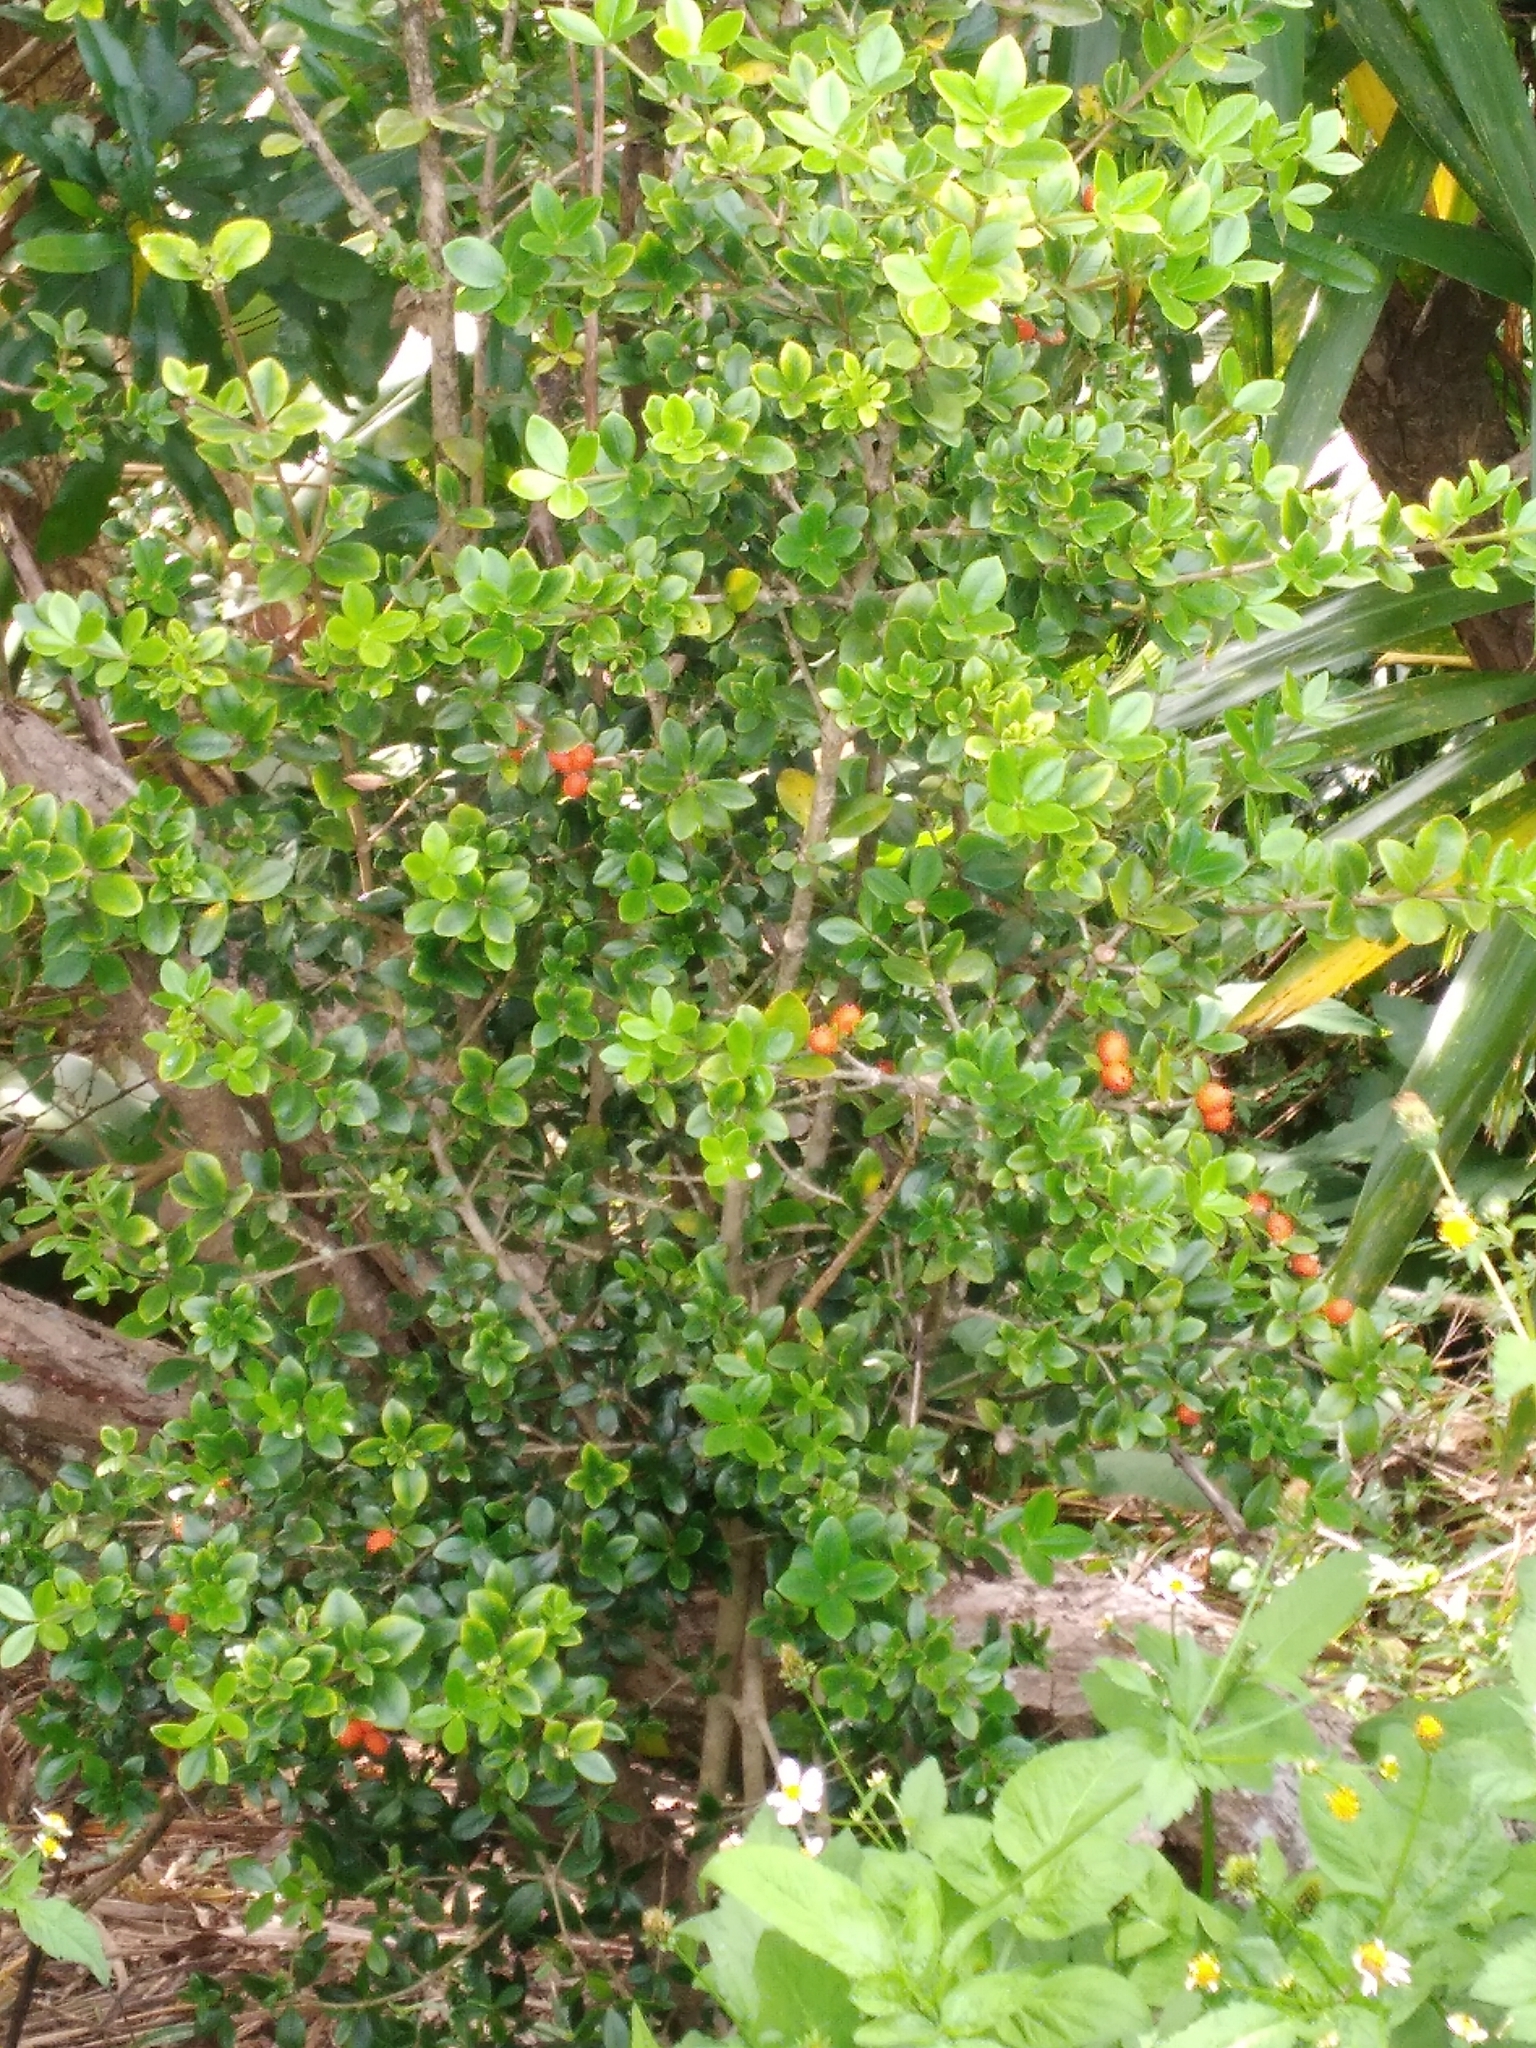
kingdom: Plantae
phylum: Tracheophyta
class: Magnoliopsida
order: Gentianales
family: Apocynaceae
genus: Alyxia
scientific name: Alyxia gynopogon
